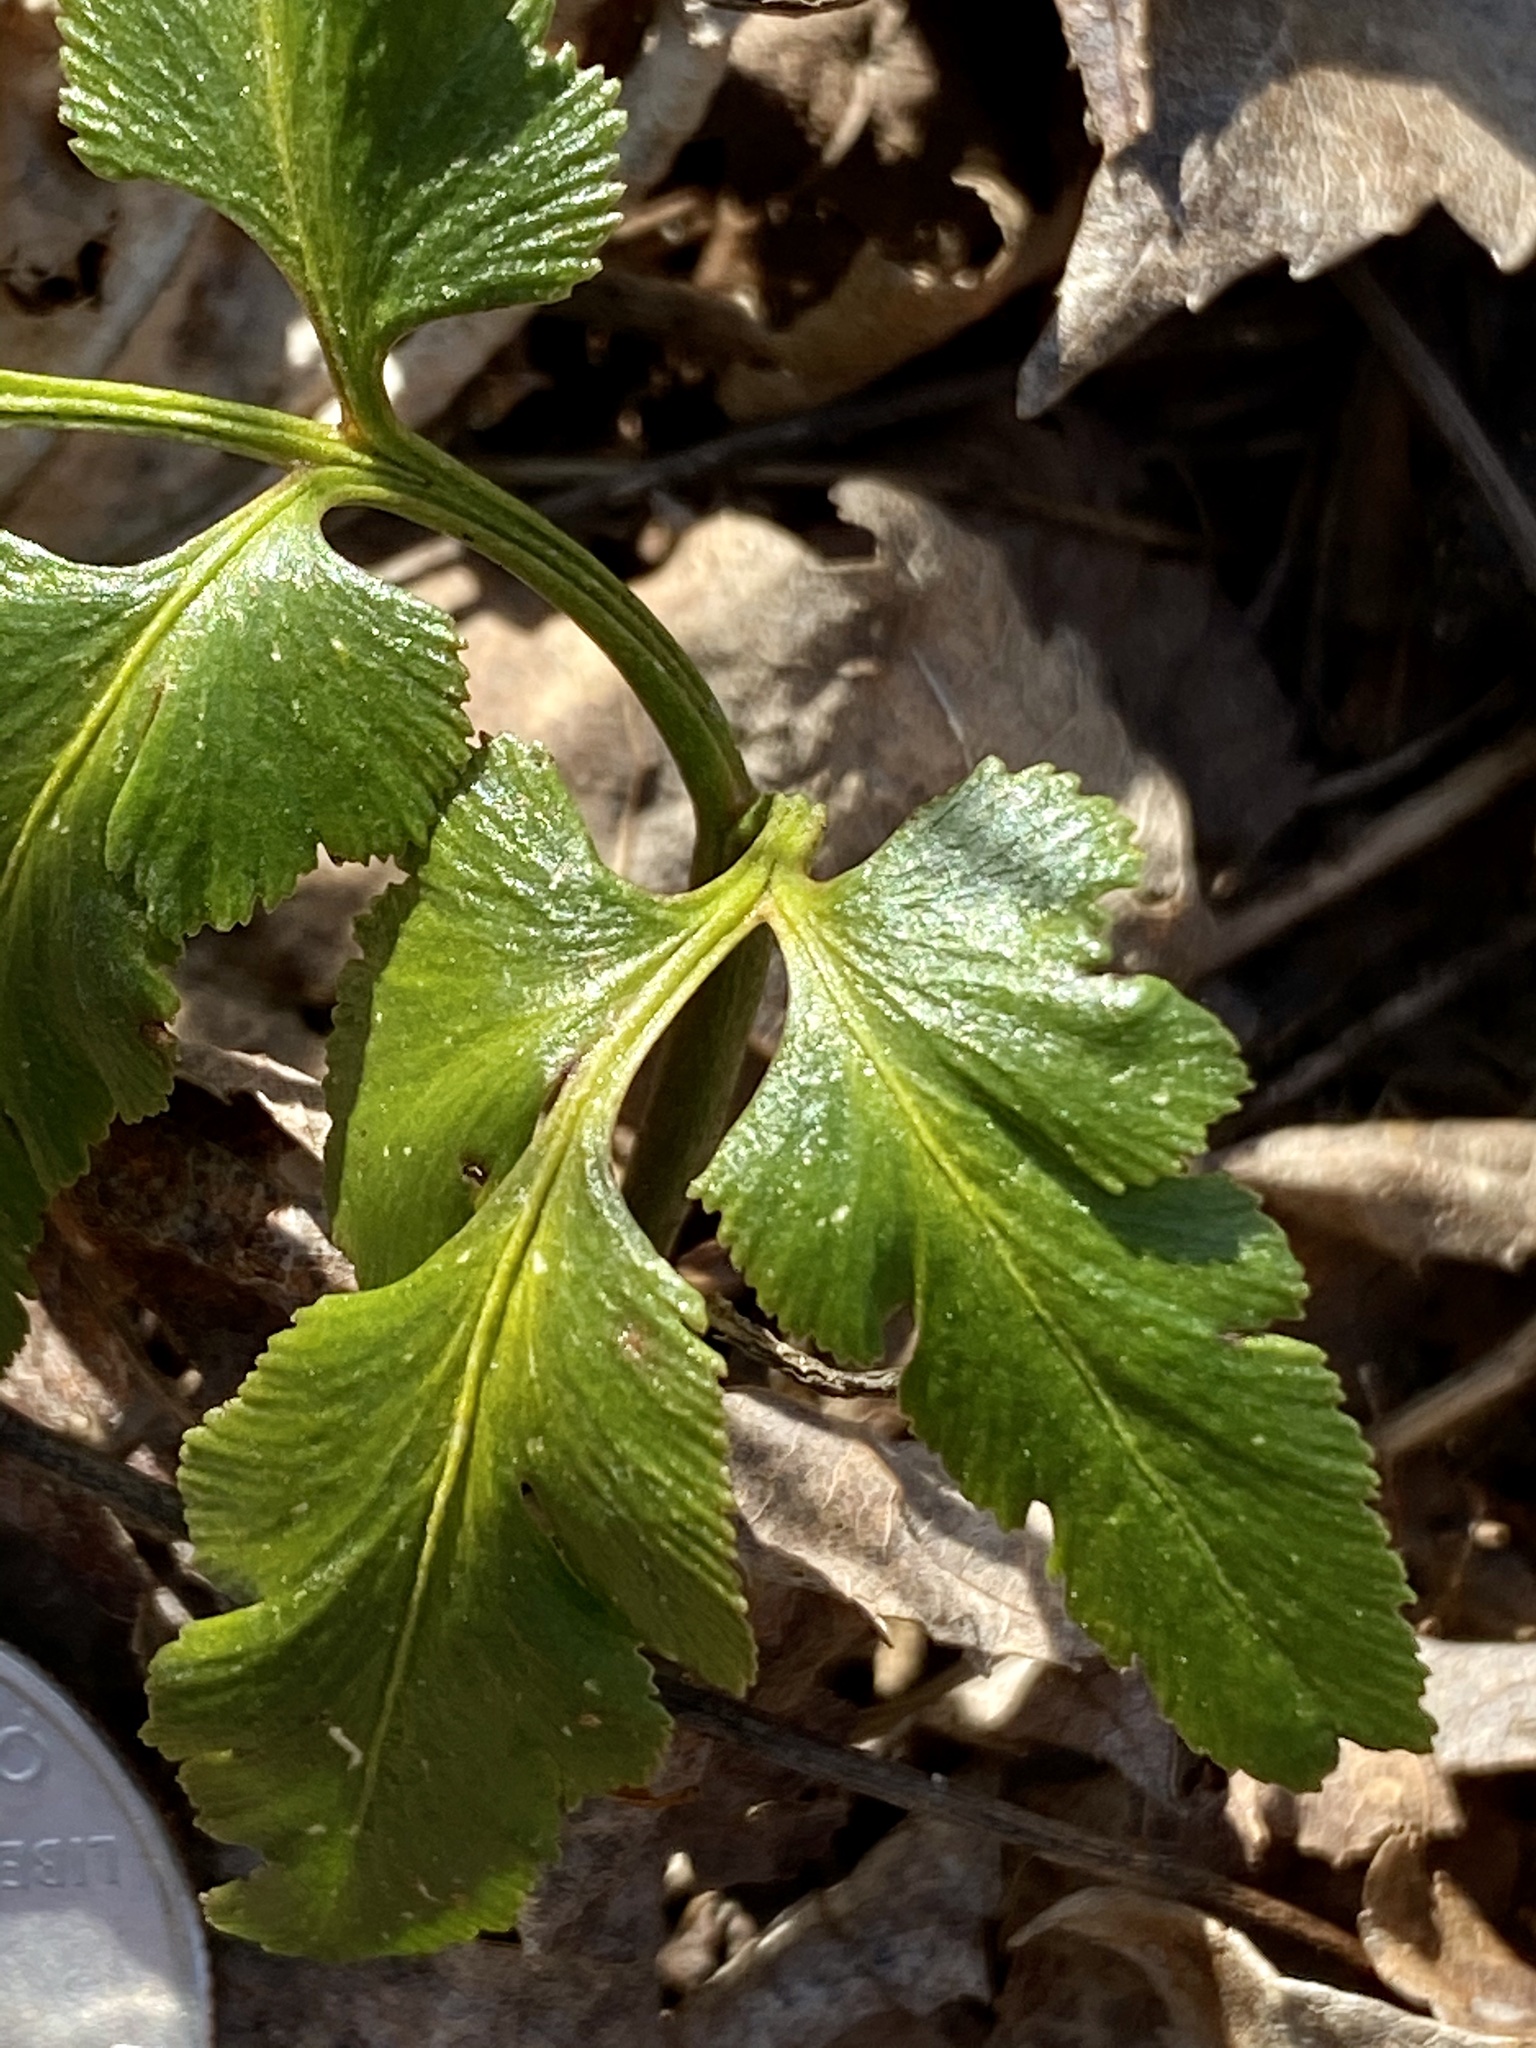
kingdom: Plantae
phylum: Tracheophyta
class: Polypodiopsida
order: Ophioglossales
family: Ophioglossaceae
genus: Sceptridium
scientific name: Sceptridium dissectum
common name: Cut-leaved grapefern
